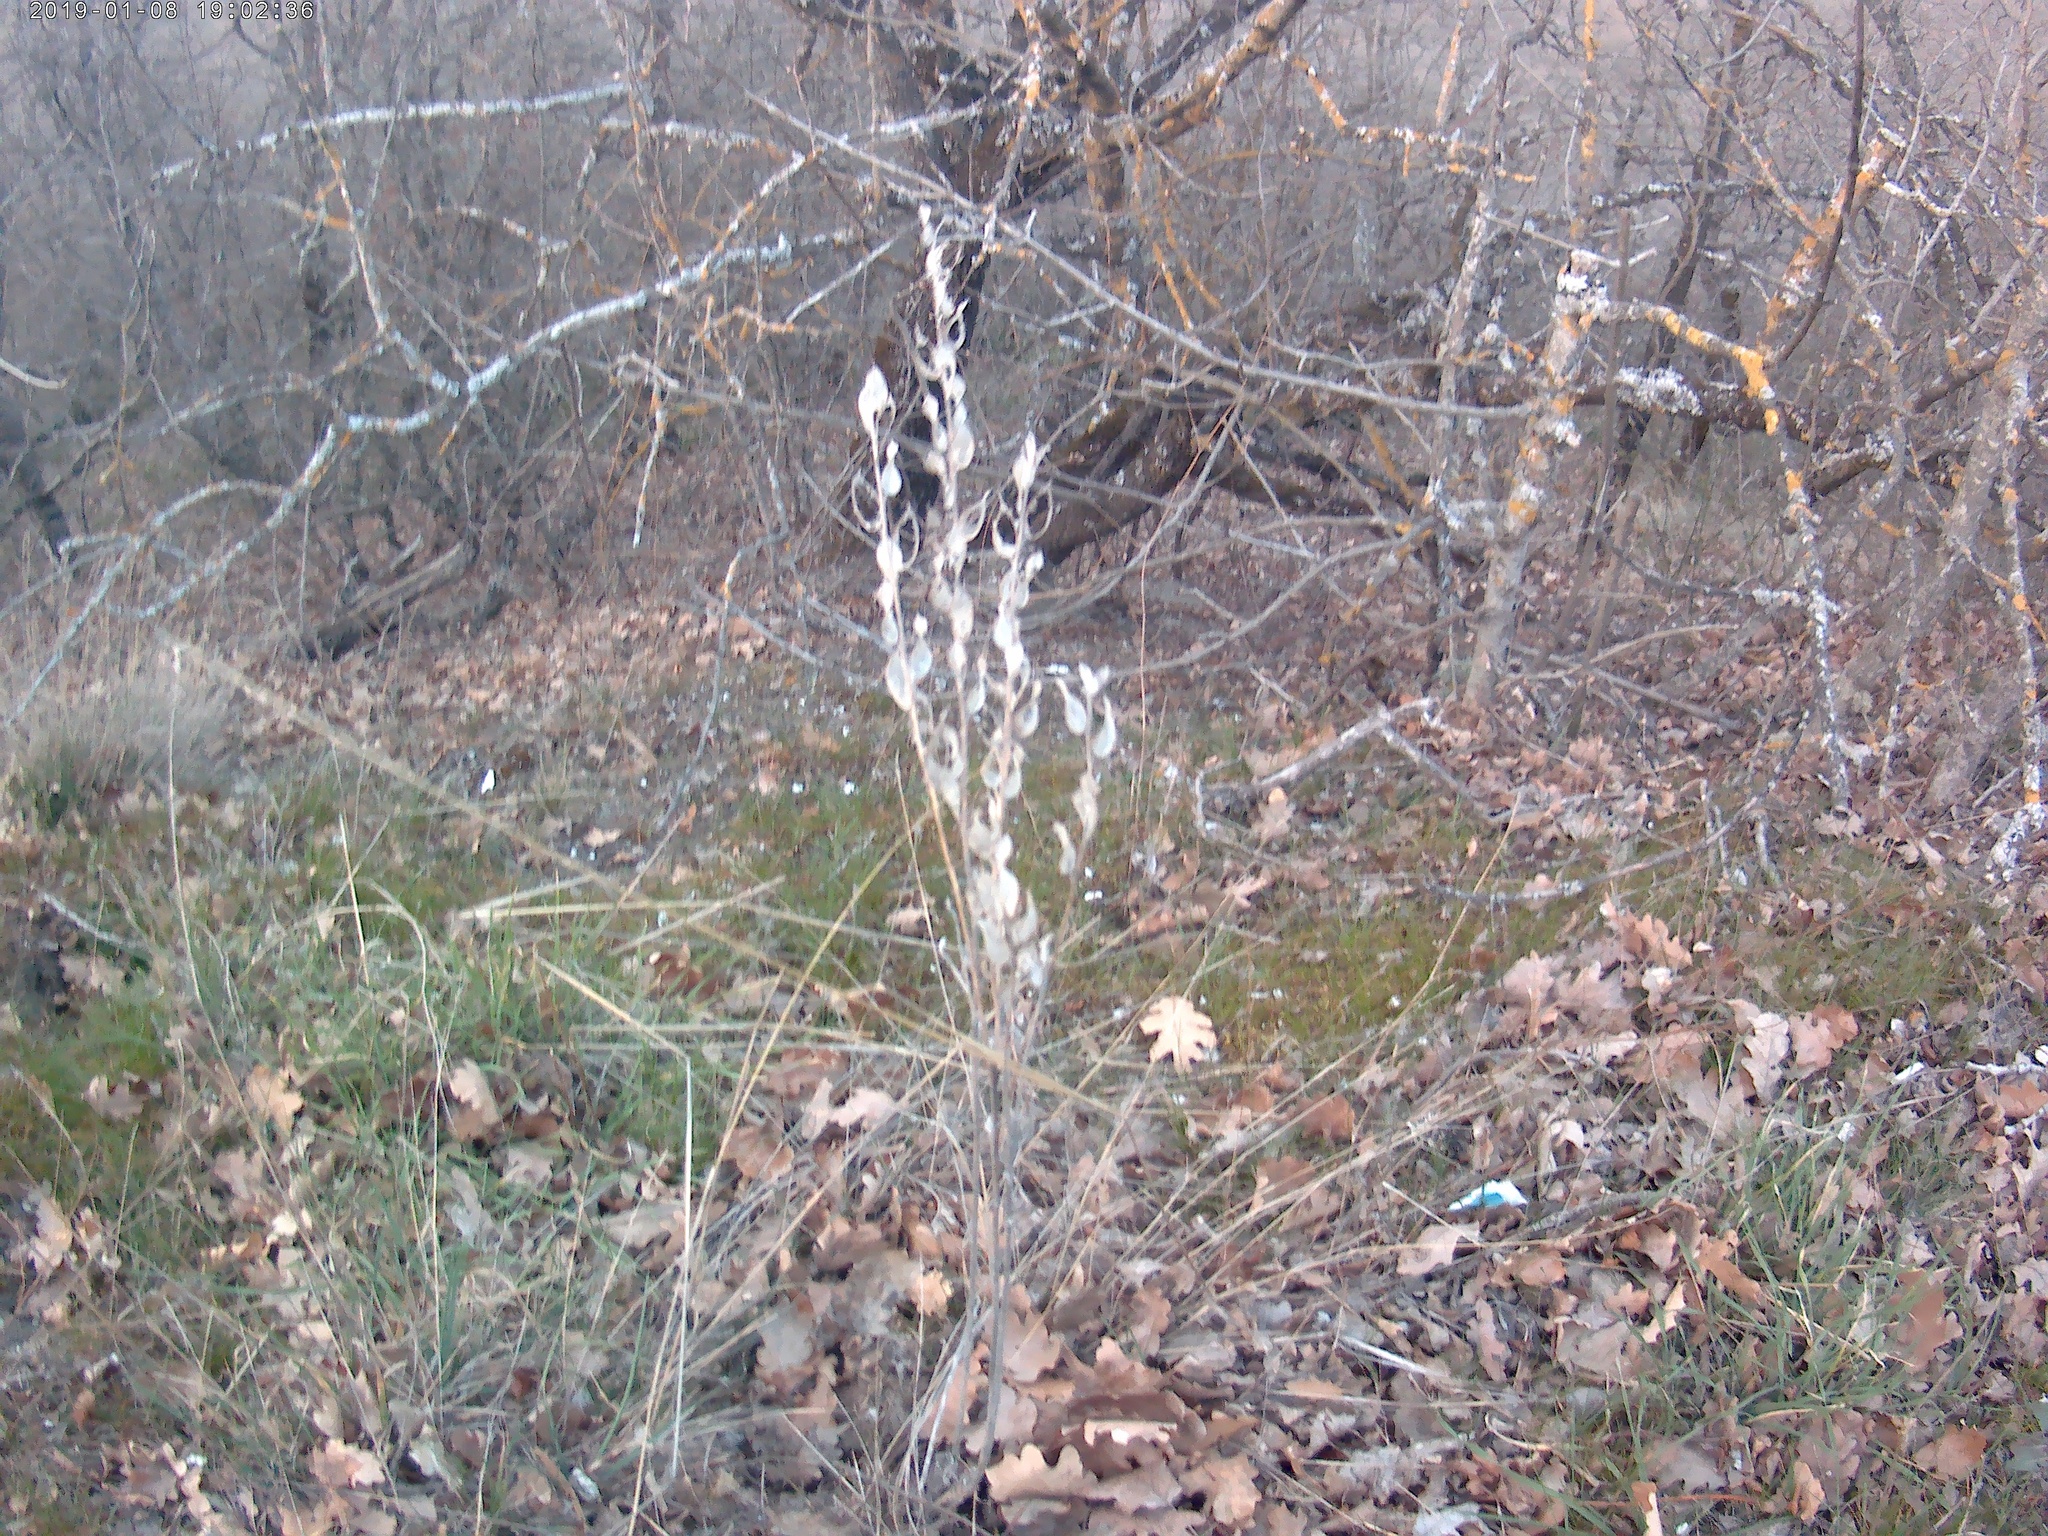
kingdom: Plantae
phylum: Tracheophyta
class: Magnoliopsida
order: Brassicales
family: Brassicaceae
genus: Fibigia
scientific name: Fibigia clypeata
